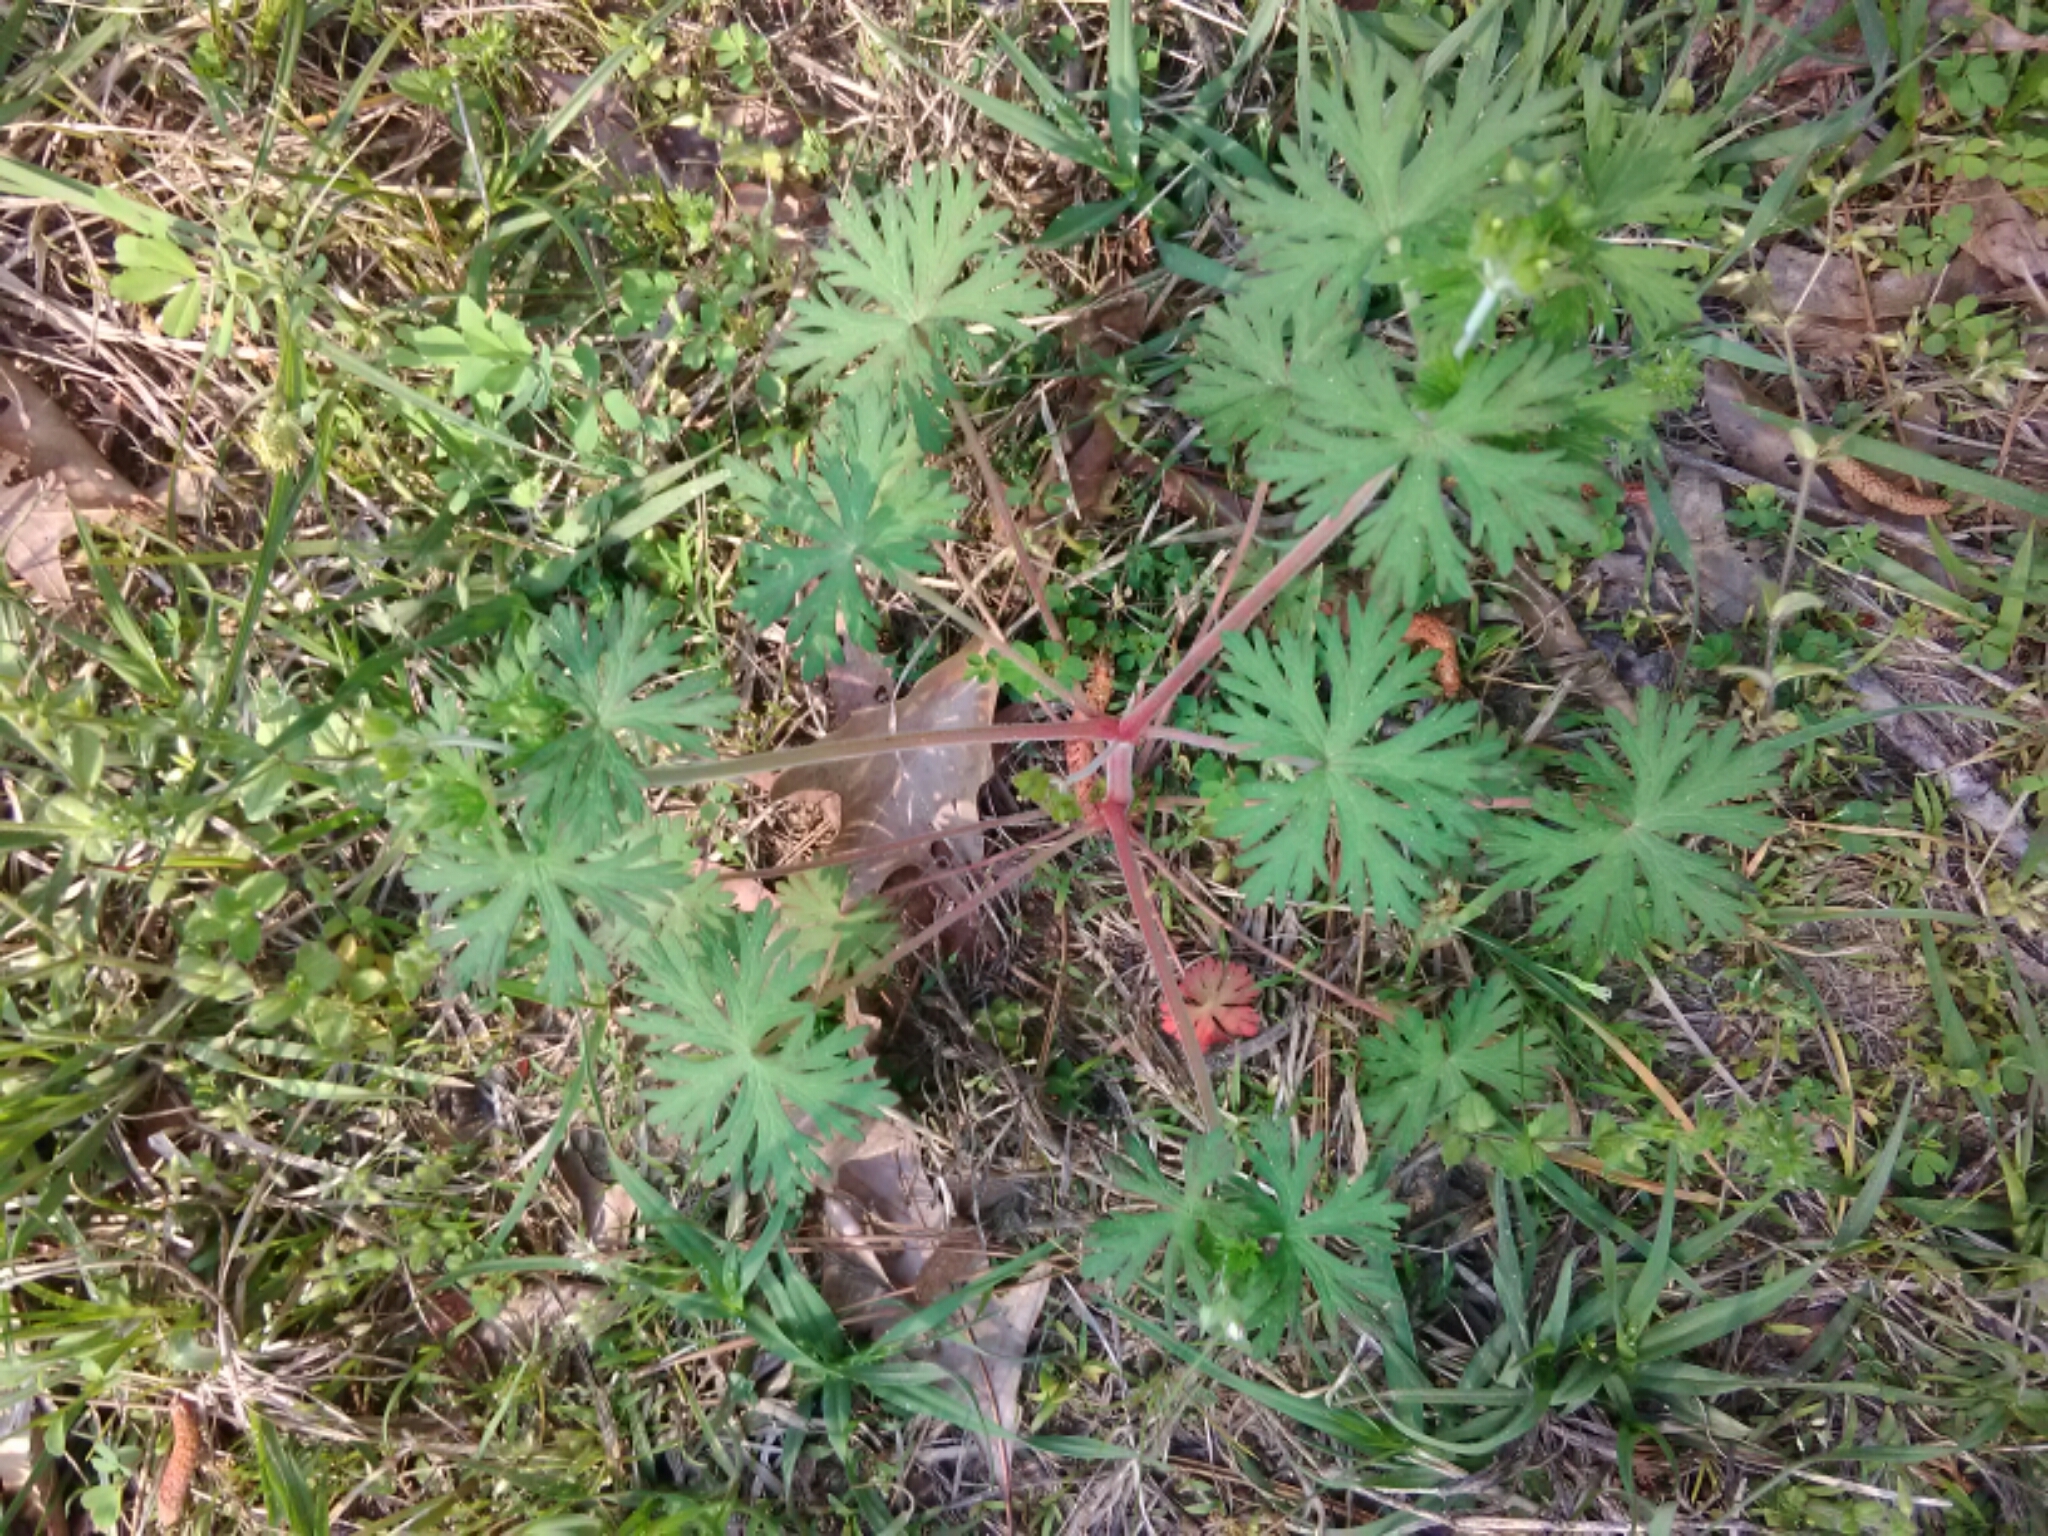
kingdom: Plantae
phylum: Tracheophyta
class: Magnoliopsida
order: Geraniales
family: Geraniaceae
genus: Geranium
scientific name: Geranium carolinianum
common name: Carolina crane's-bill
